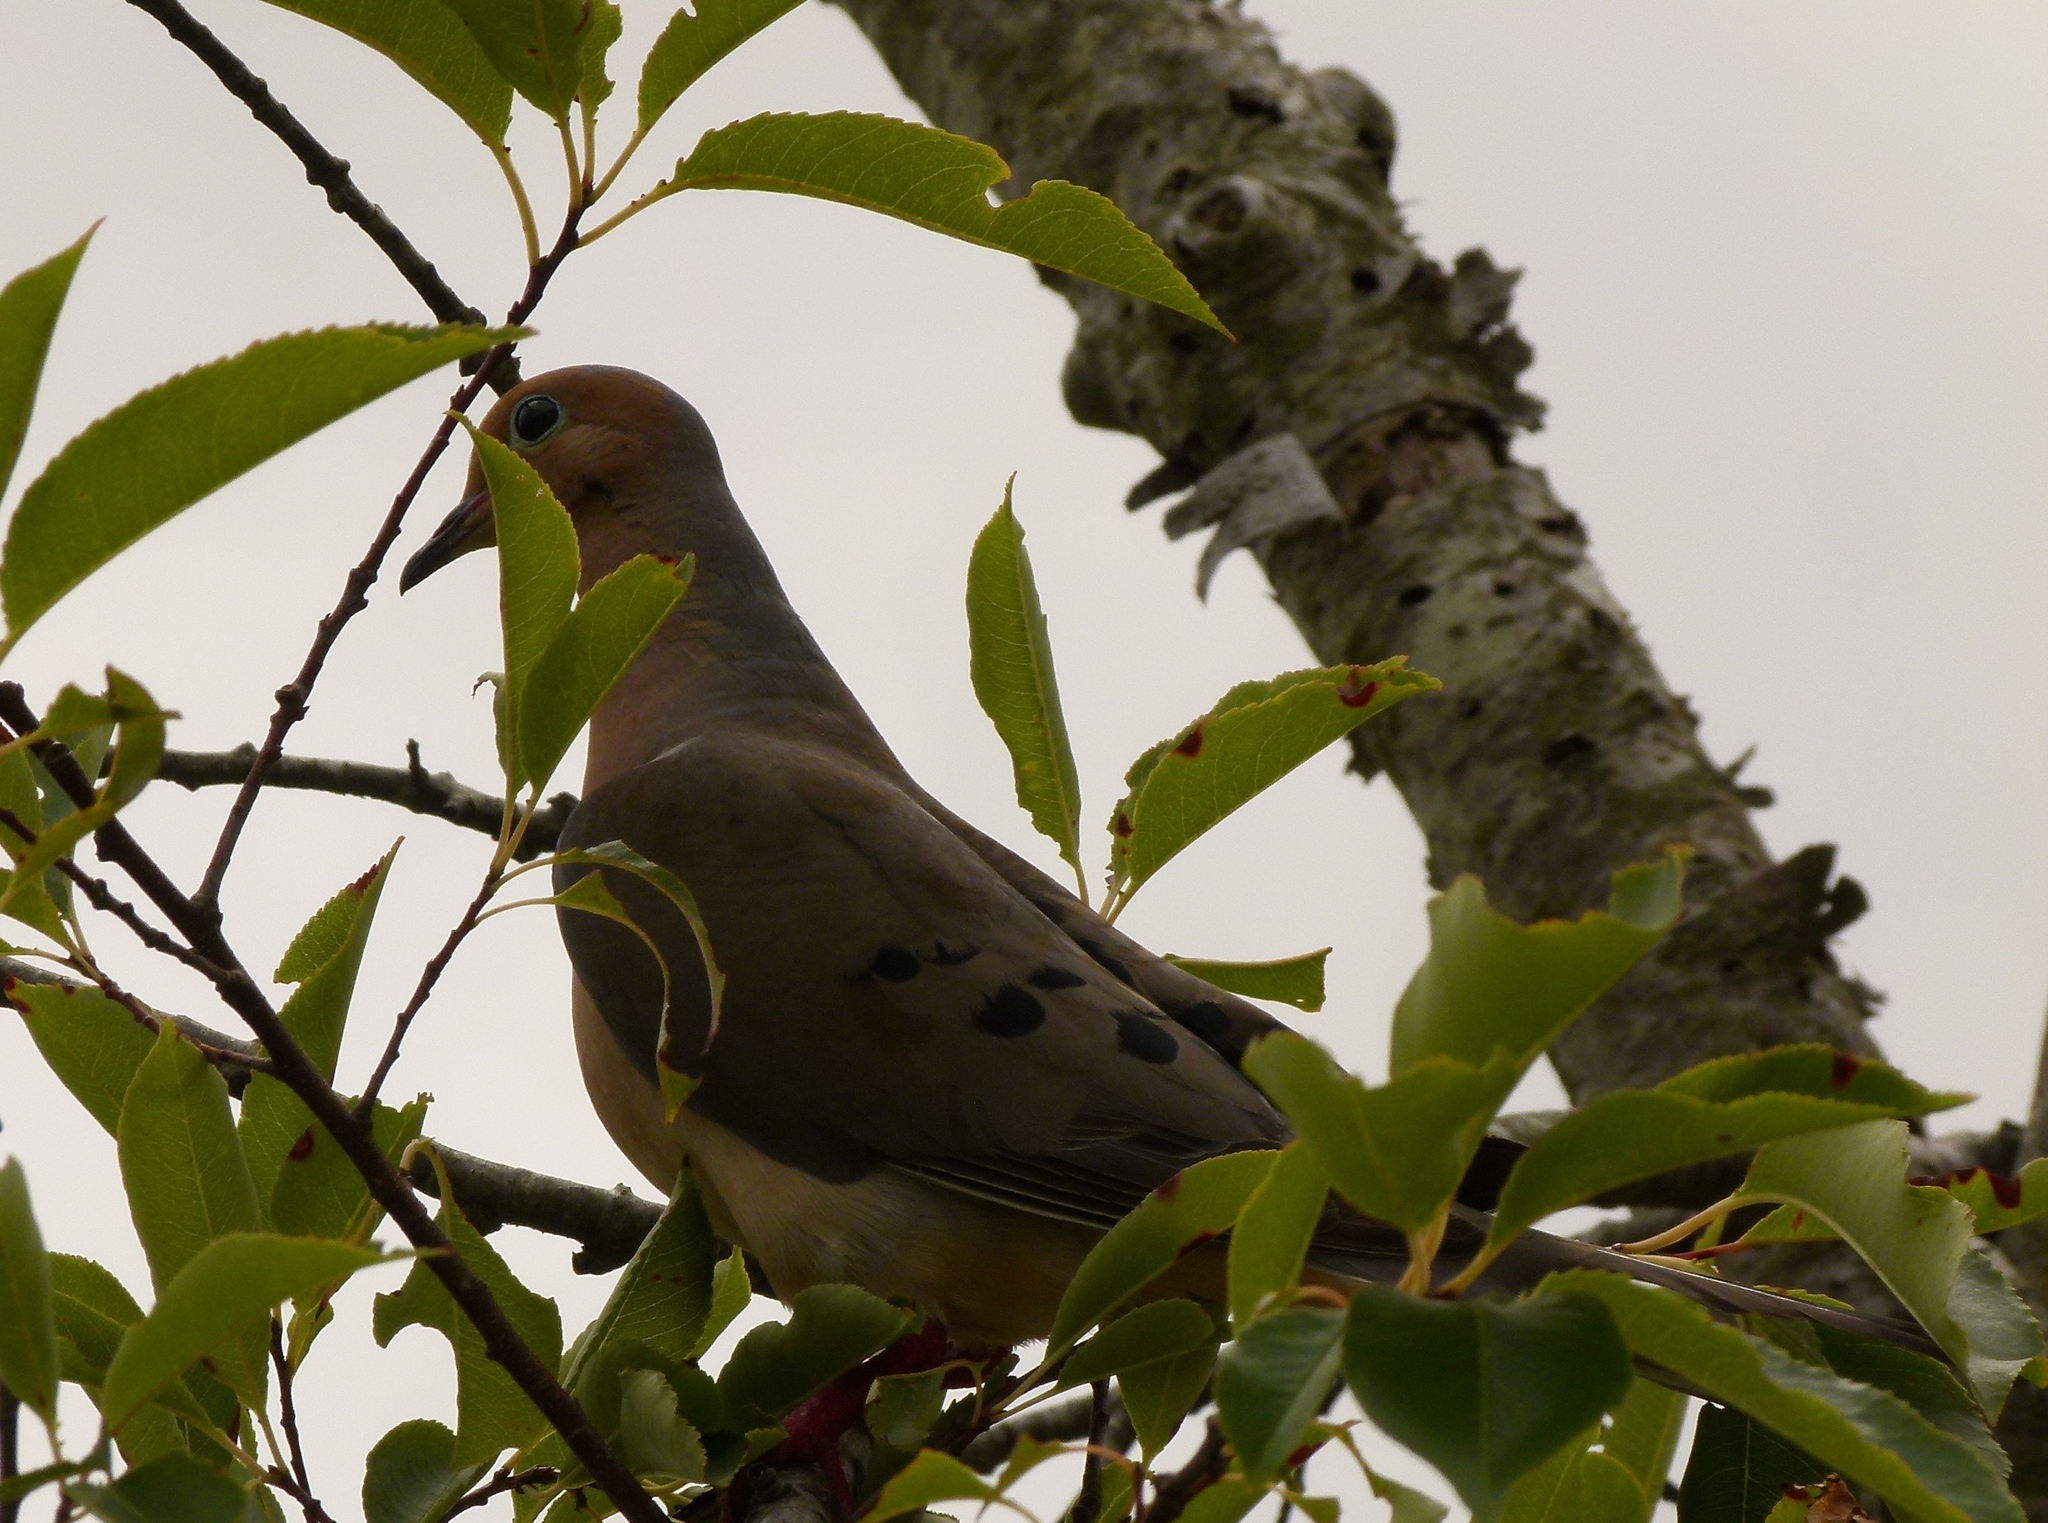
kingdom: Animalia
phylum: Chordata
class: Aves
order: Columbiformes
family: Columbidae
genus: Zenaida
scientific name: Zenaida macroura
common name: Mourning dove
